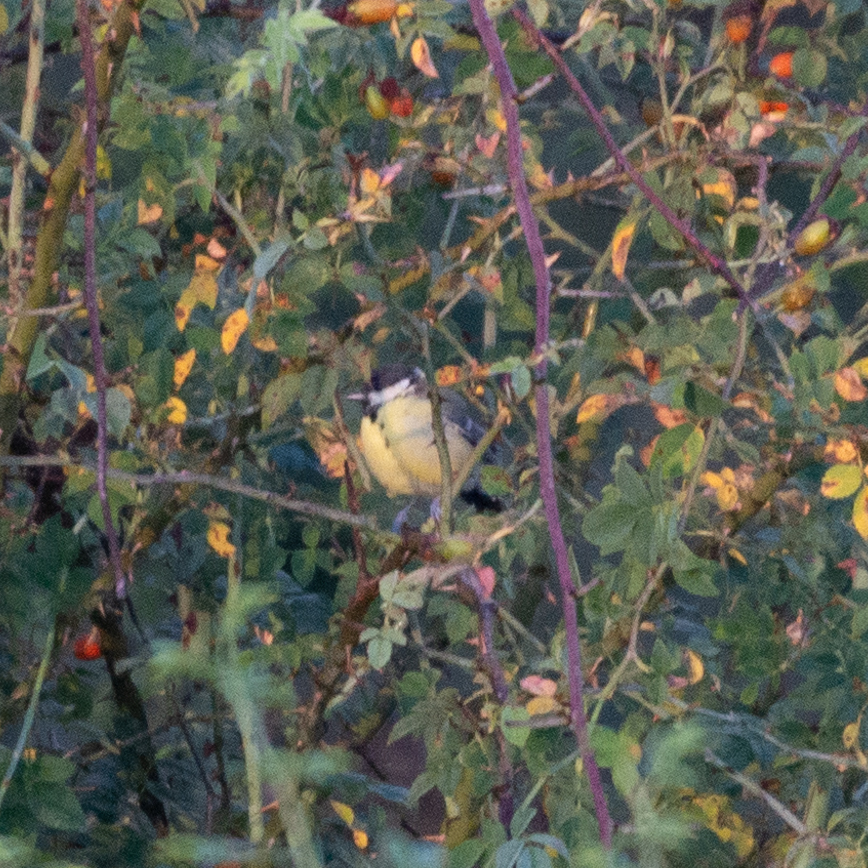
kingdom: Animalia
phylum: Chordata
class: Aves
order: Passeriformes
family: Paridae
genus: Parus
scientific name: Parus major
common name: Great tit
